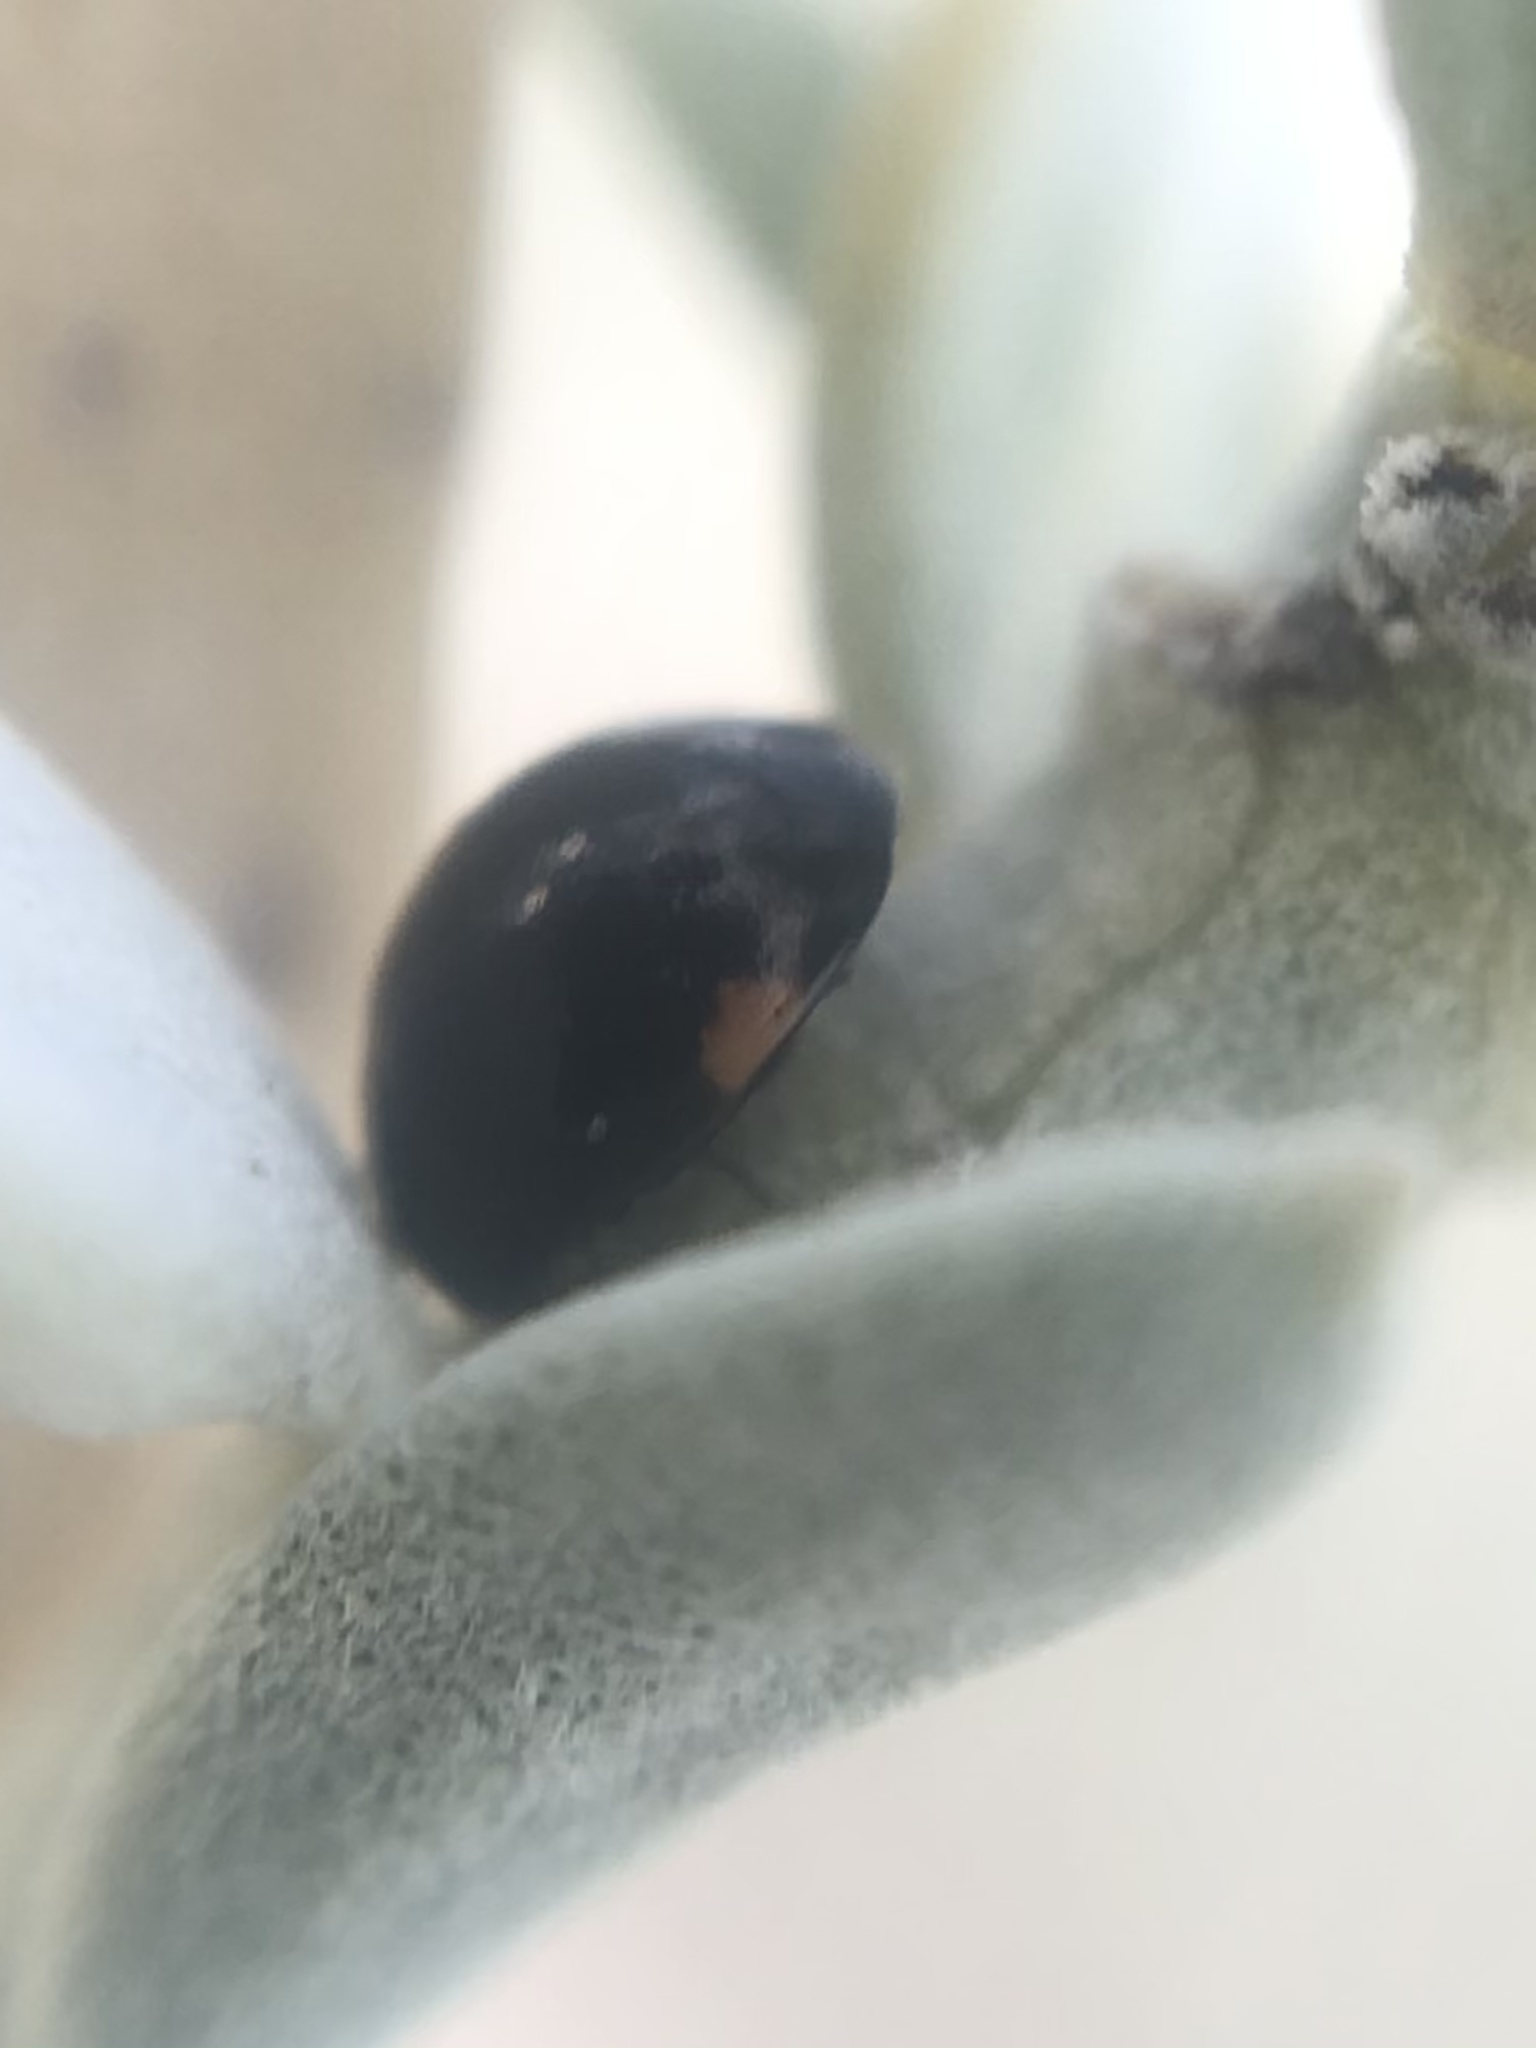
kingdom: Animalia
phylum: Arthropoda
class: Insecta
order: Coleoptera
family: Coccinellidae
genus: Hyperaspis
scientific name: Hyperaspis pleuralis
